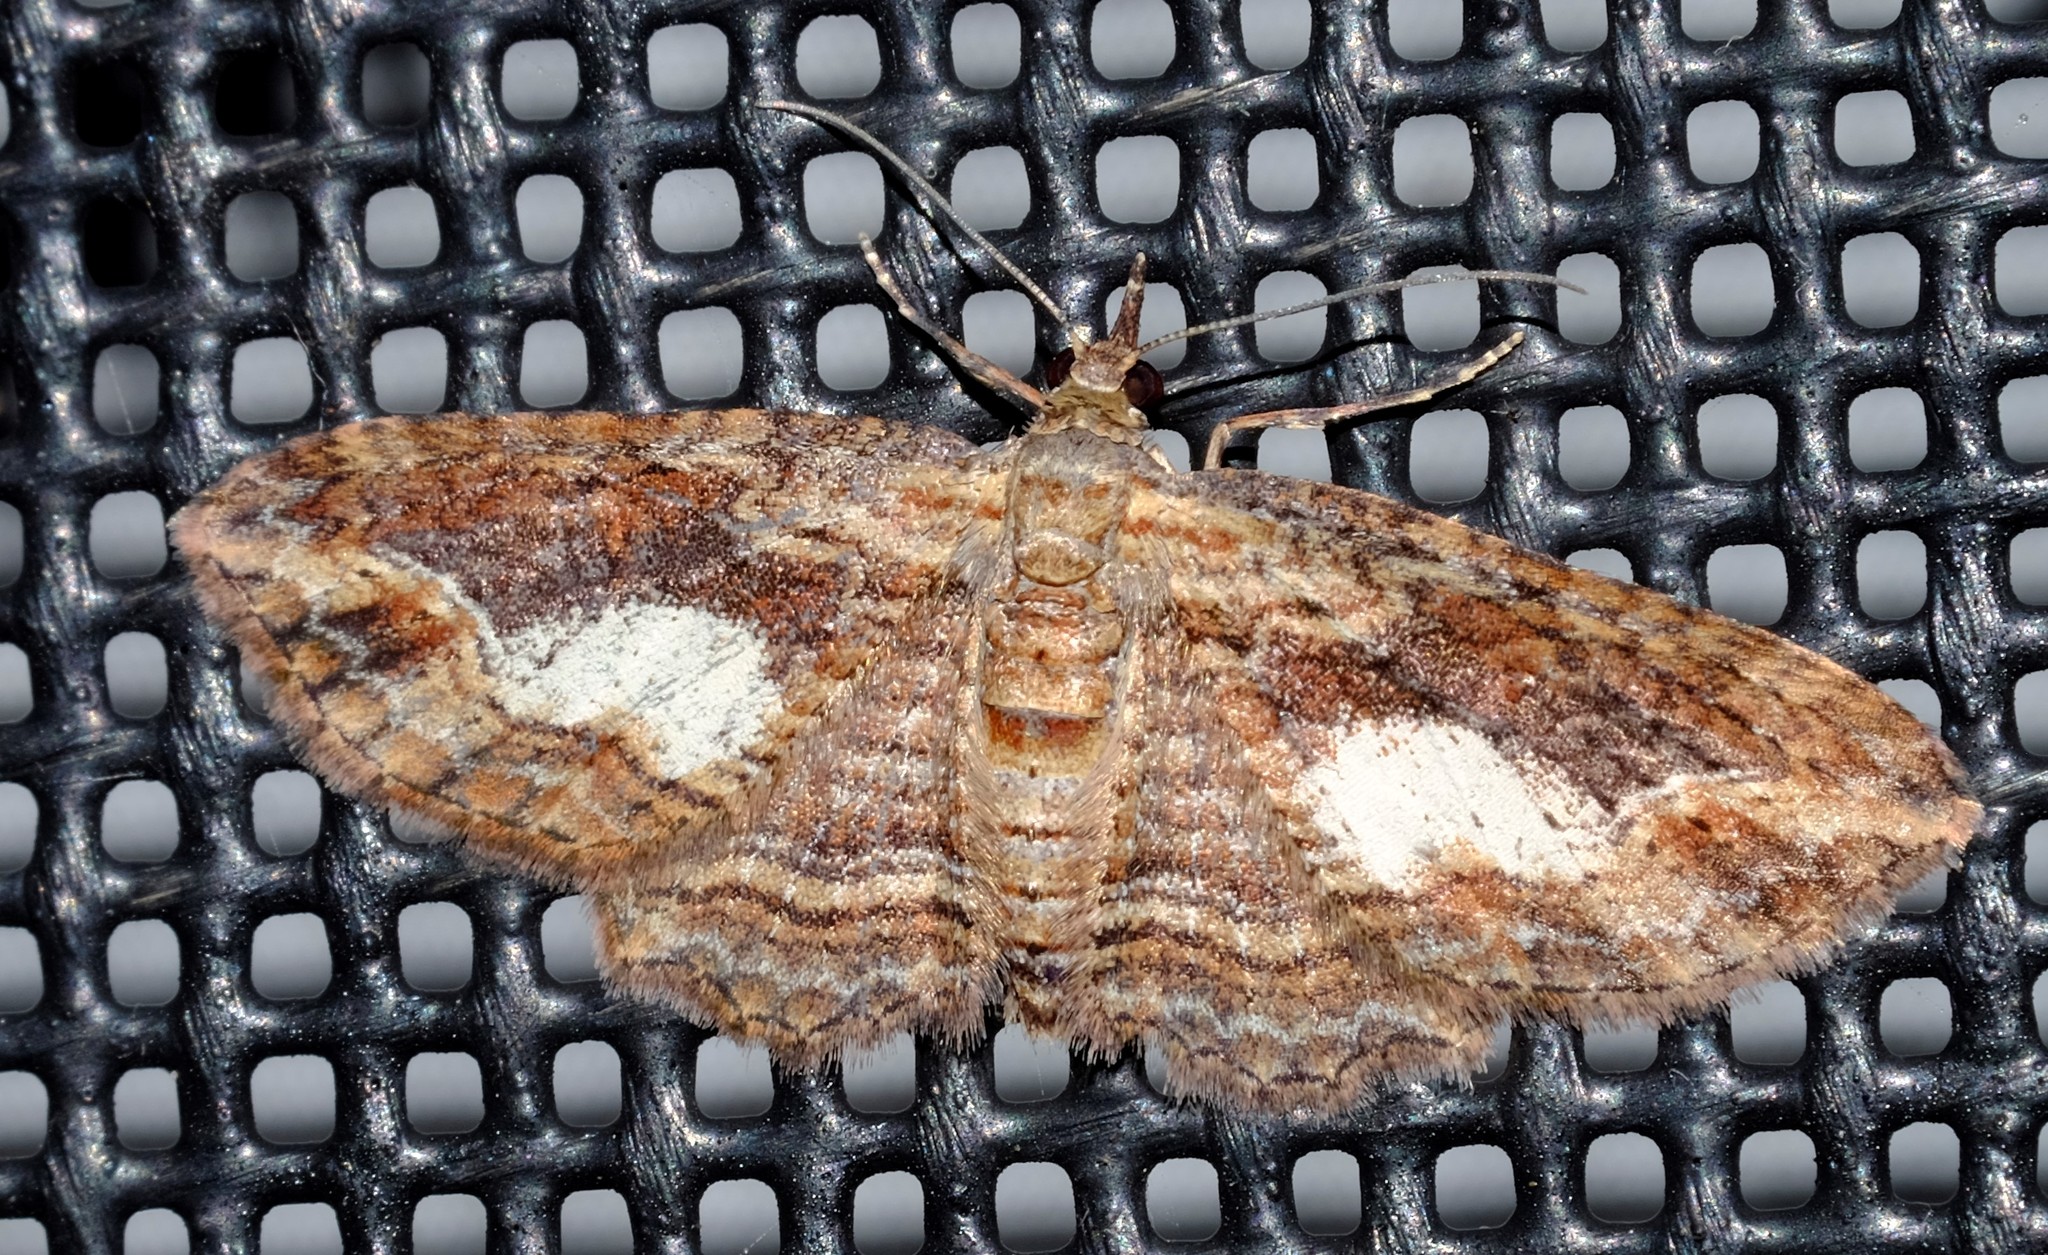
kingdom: Animalia
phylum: Arthropoda
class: Insecta
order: Lepidoptera
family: Geometridae
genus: Chloroclystis
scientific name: Chloroclystis filata
